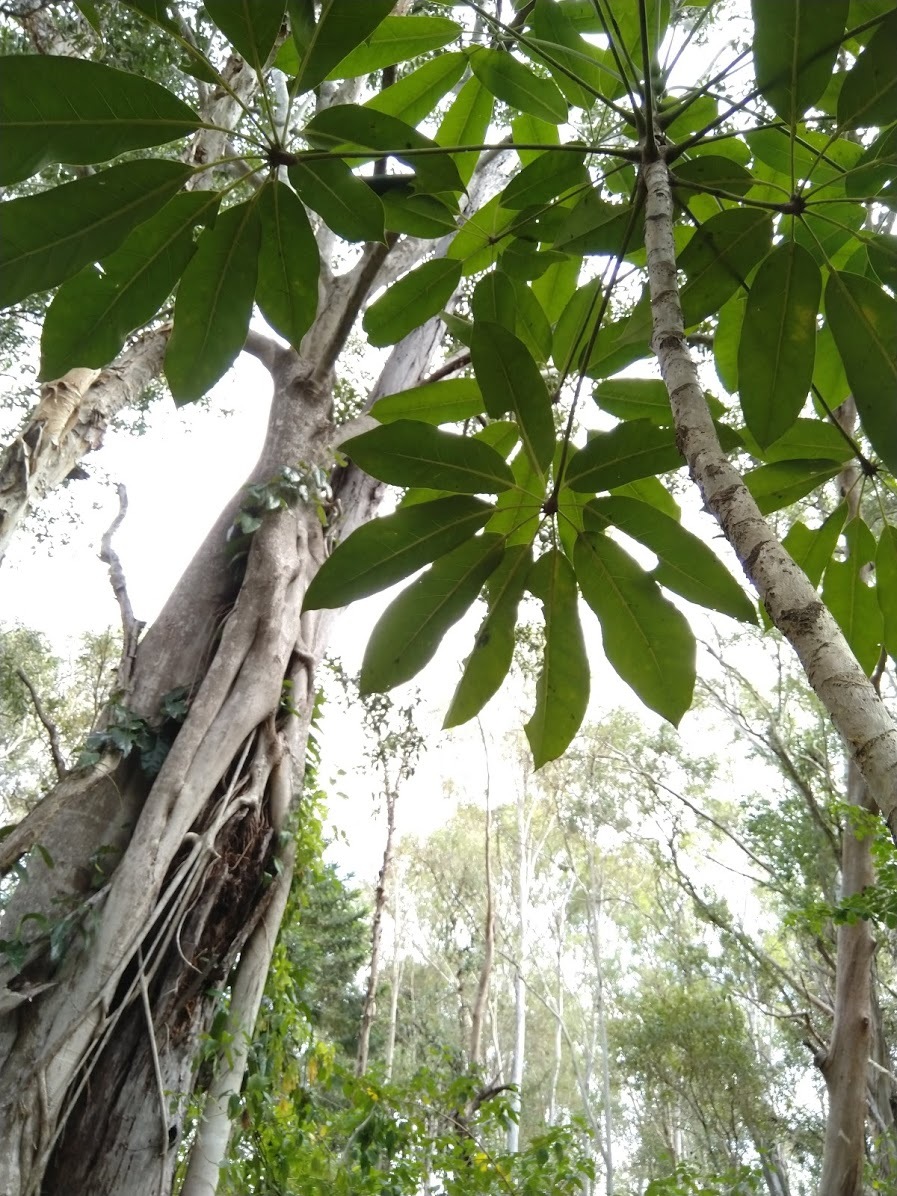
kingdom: Plantae
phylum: Tracheophyta
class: Magnoliopsida
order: Apiales
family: Araliaceae
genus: Heptapleurum
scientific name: Heptapleurum actinophyllum
